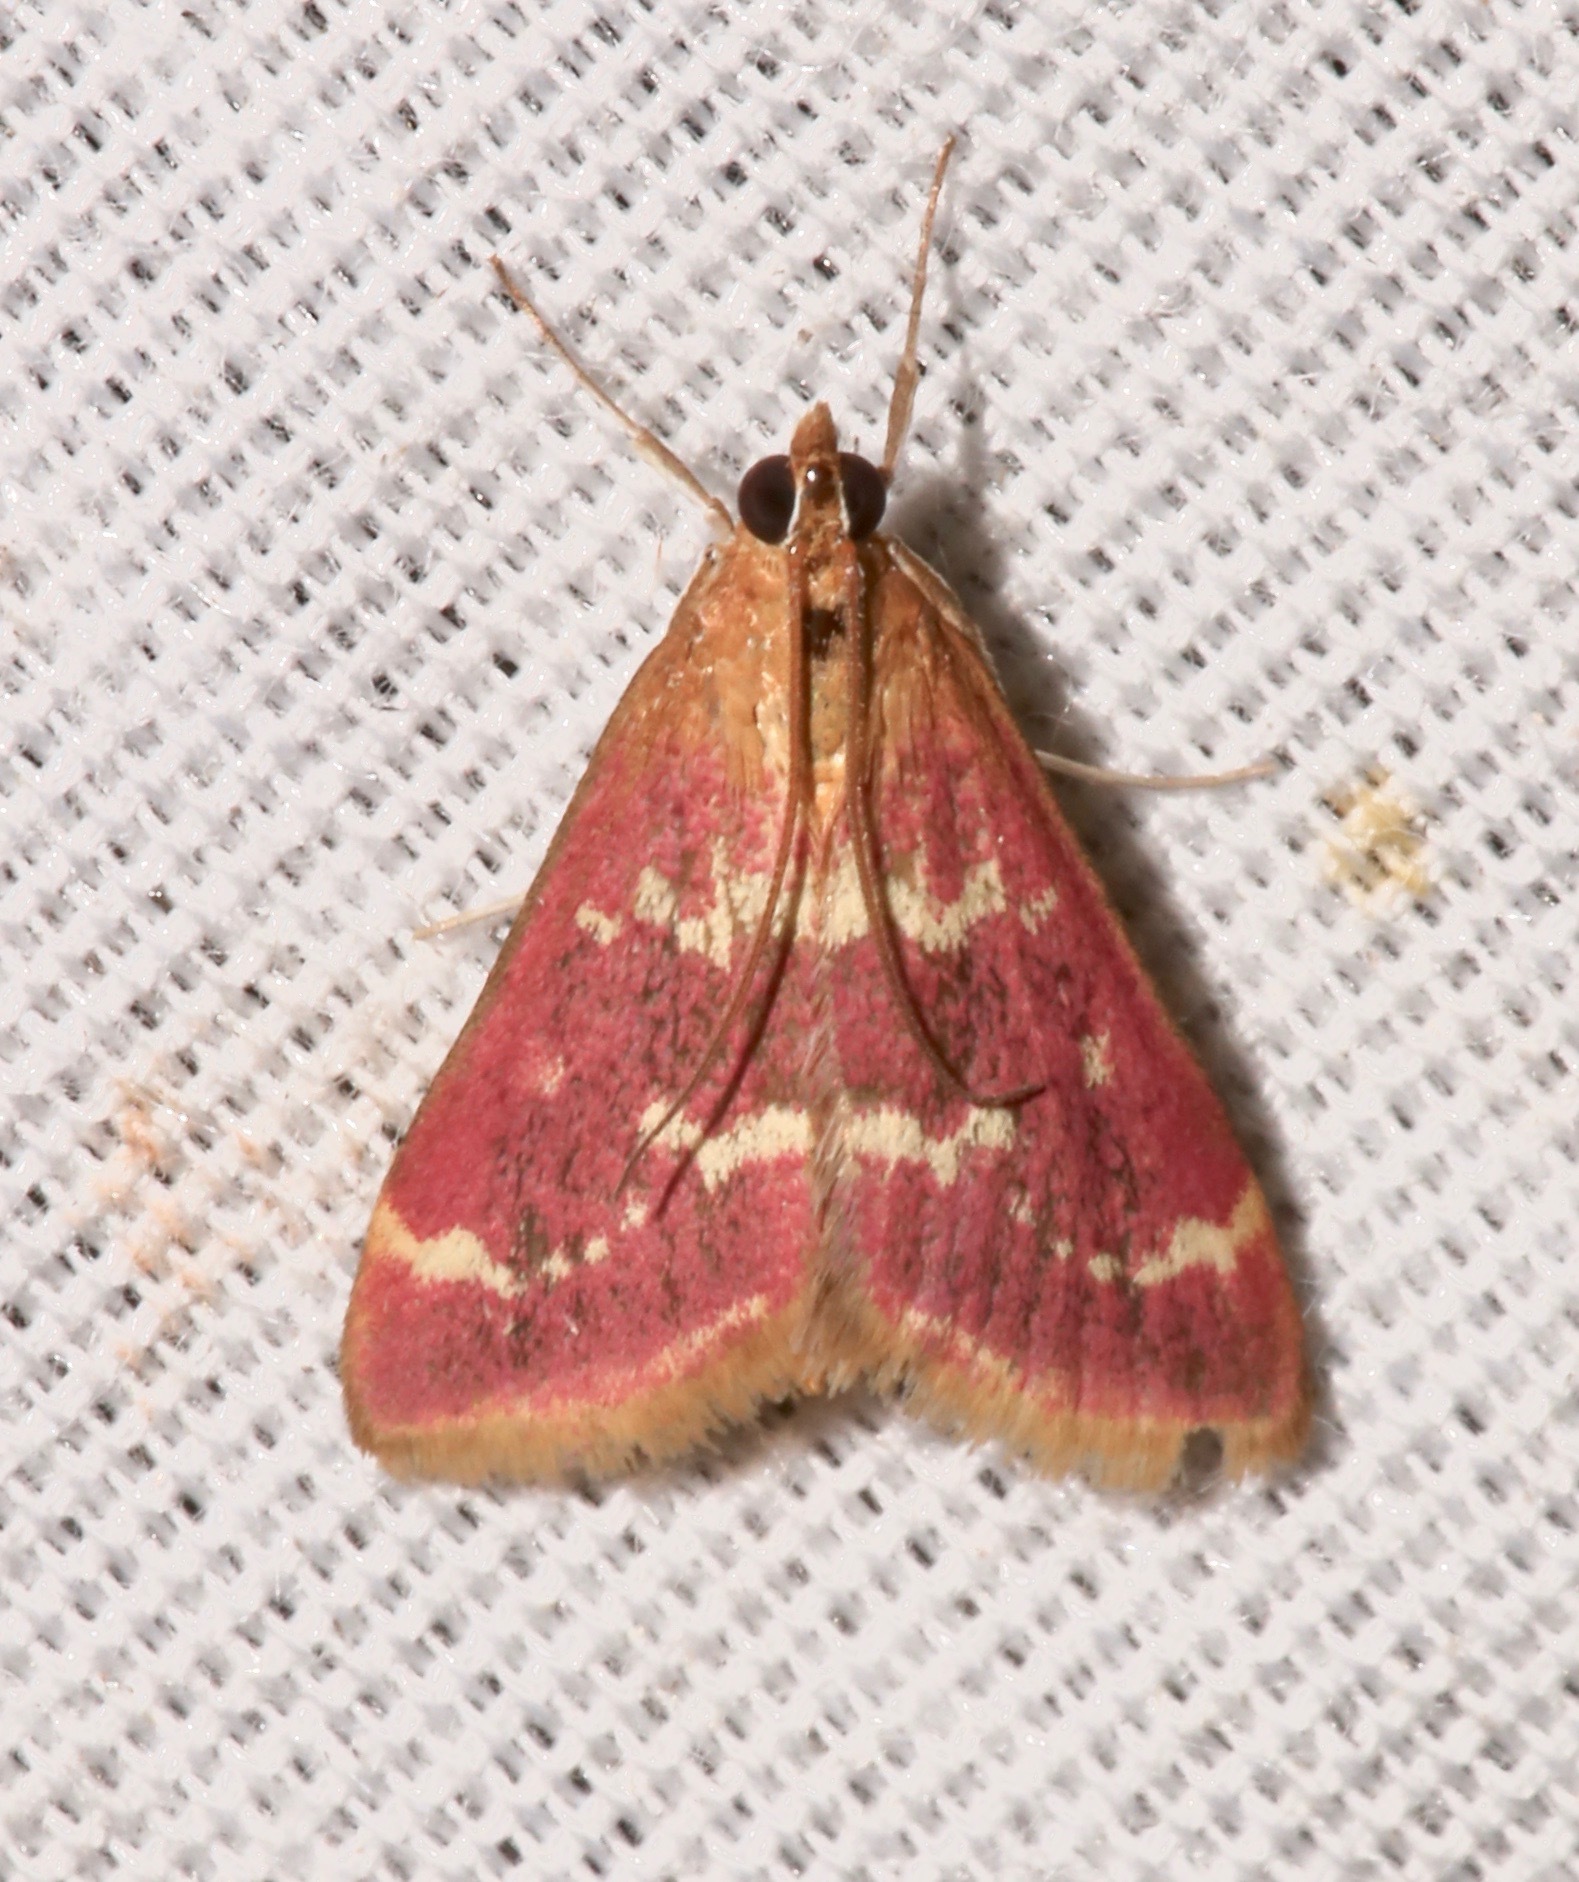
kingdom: Animalia
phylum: Arthropoda
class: Insecta
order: Lepidoptera
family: Crambidae
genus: Pyrausta
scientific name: Pyrausta signatalis
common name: Raspberry pyrausta moth
